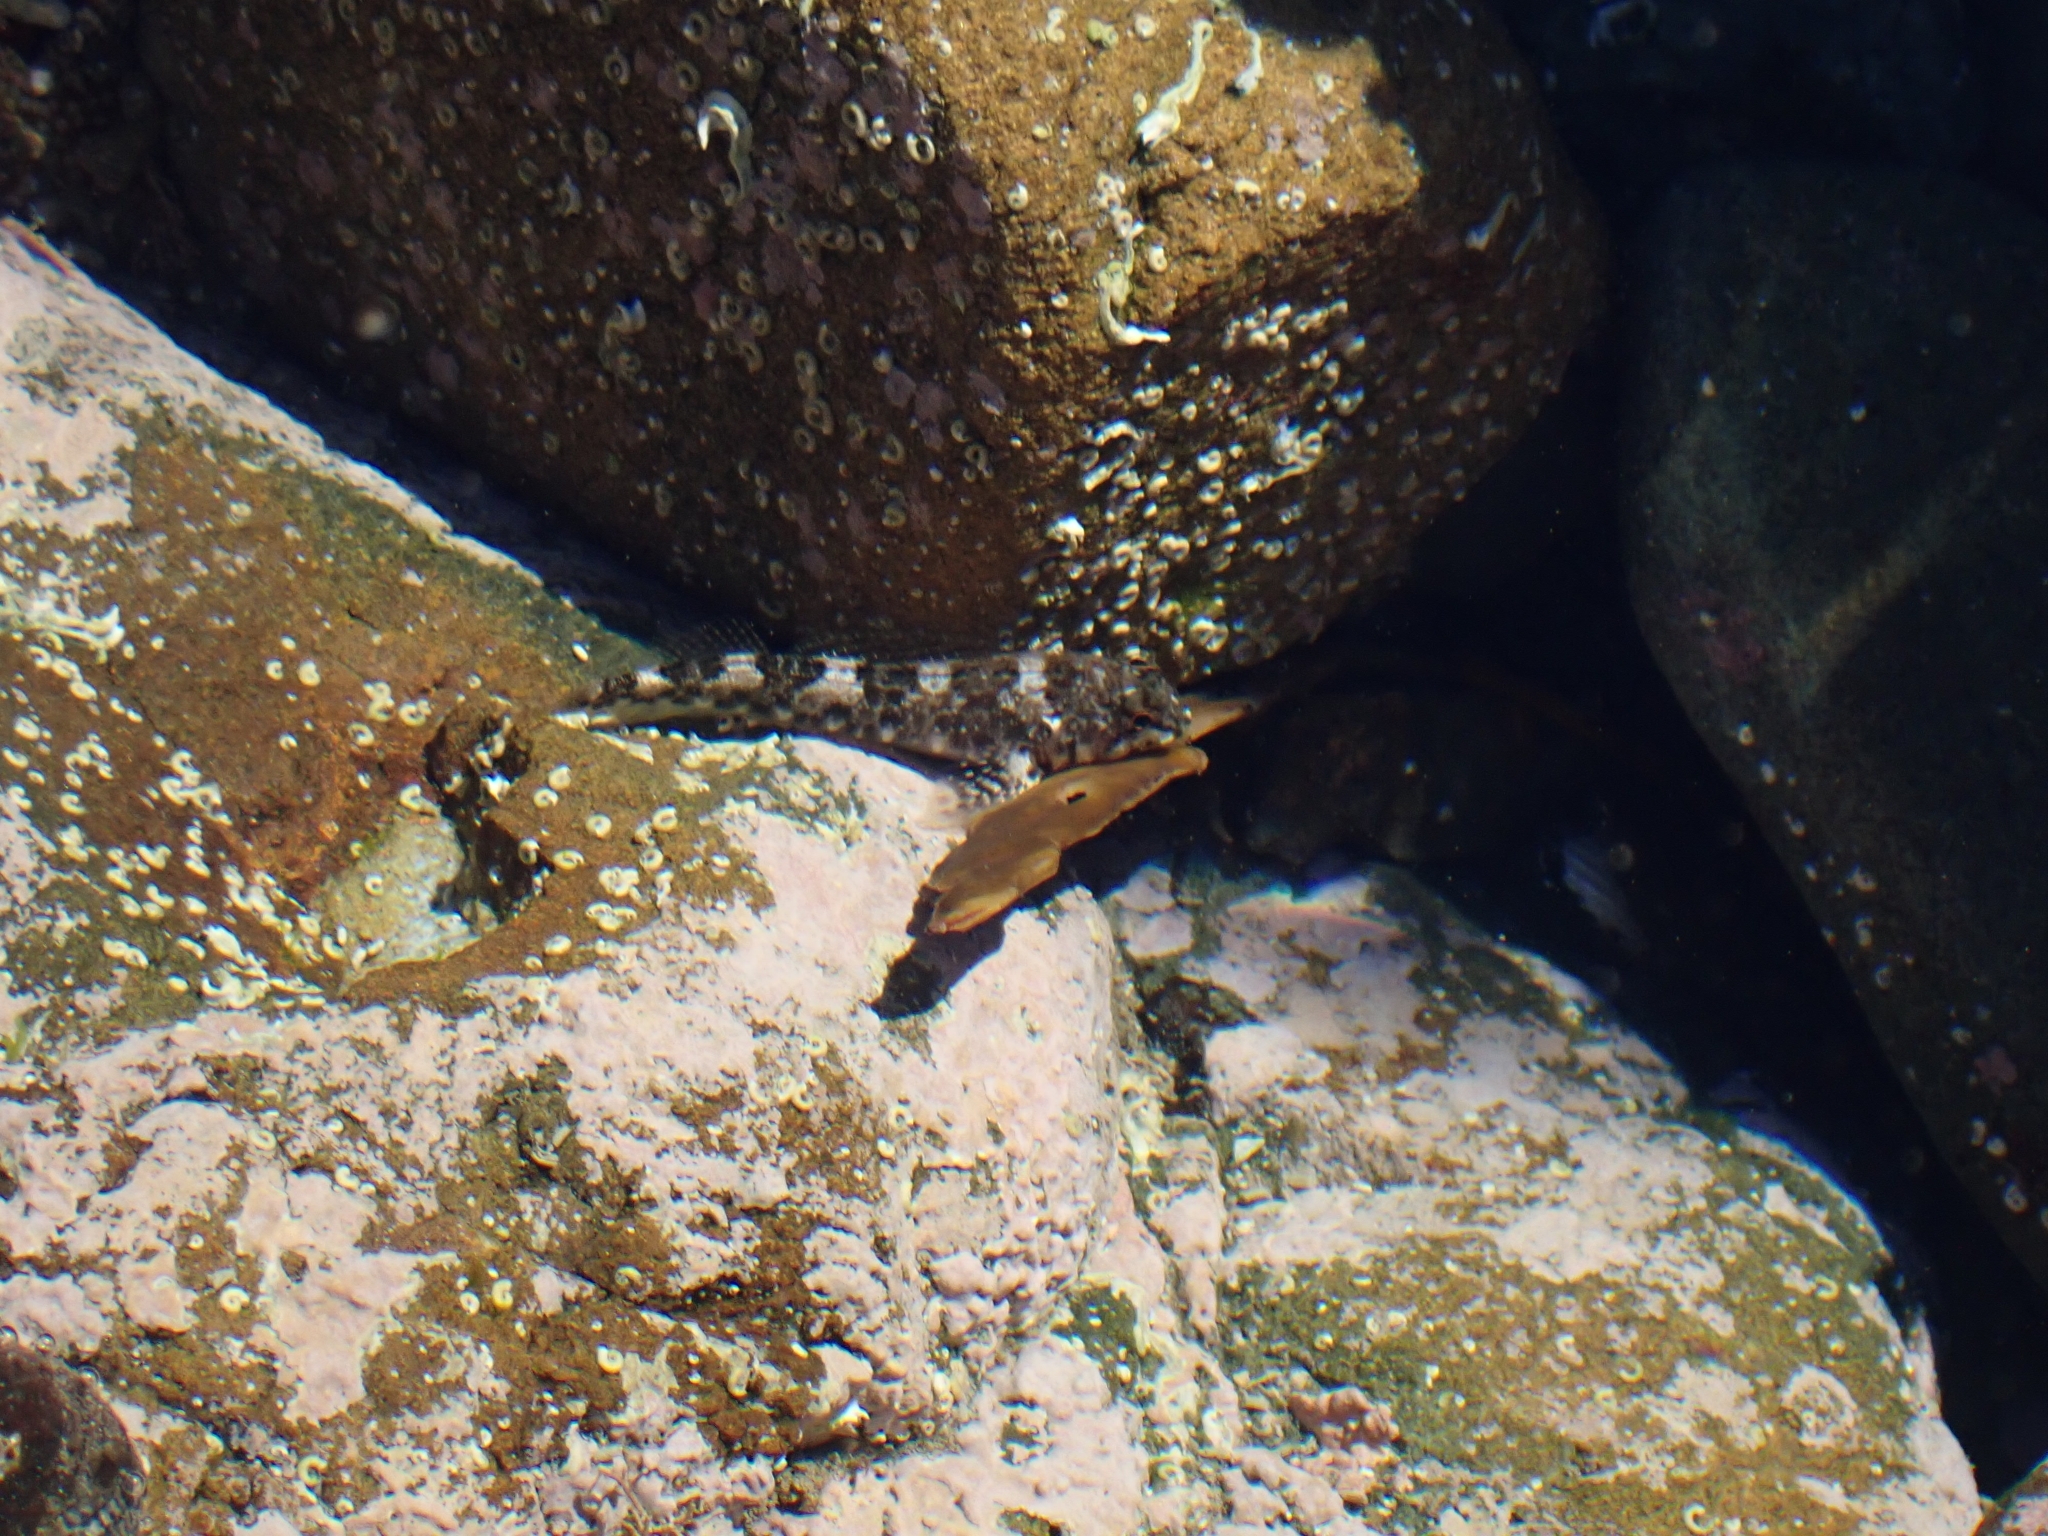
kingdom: Animalia
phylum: Chordata
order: Perciformes
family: Tripterygiidae
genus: Bellapiscis
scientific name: Bellapiscis medius
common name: Twister
